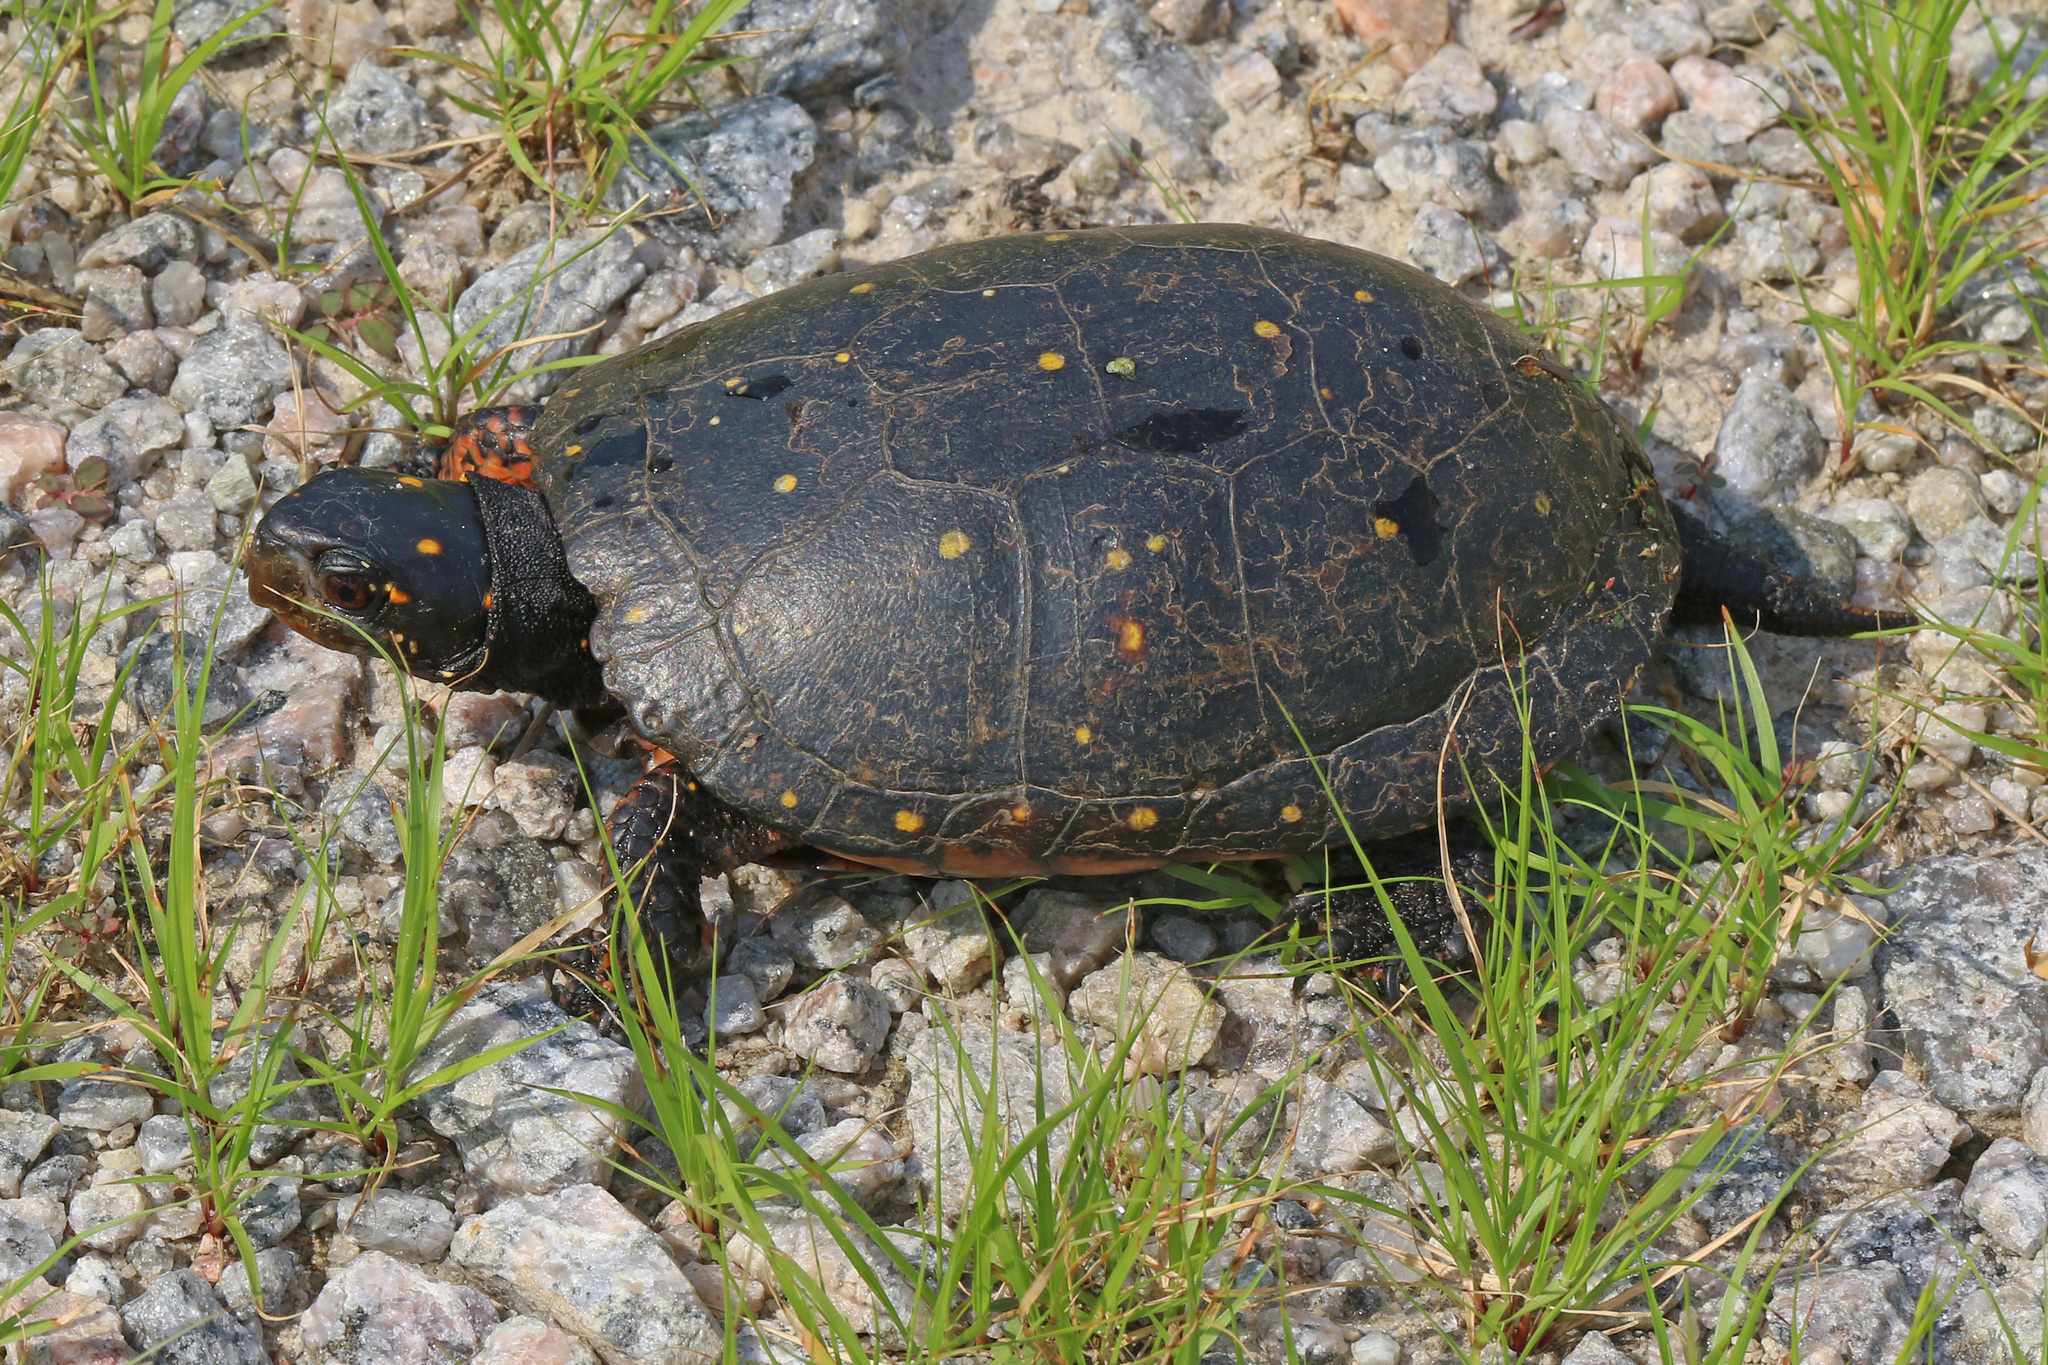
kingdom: Animalia
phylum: Chordata
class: Testudines
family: Emydidae
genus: Clemmys
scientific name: Clemmys guttata
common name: Spotted turtle
